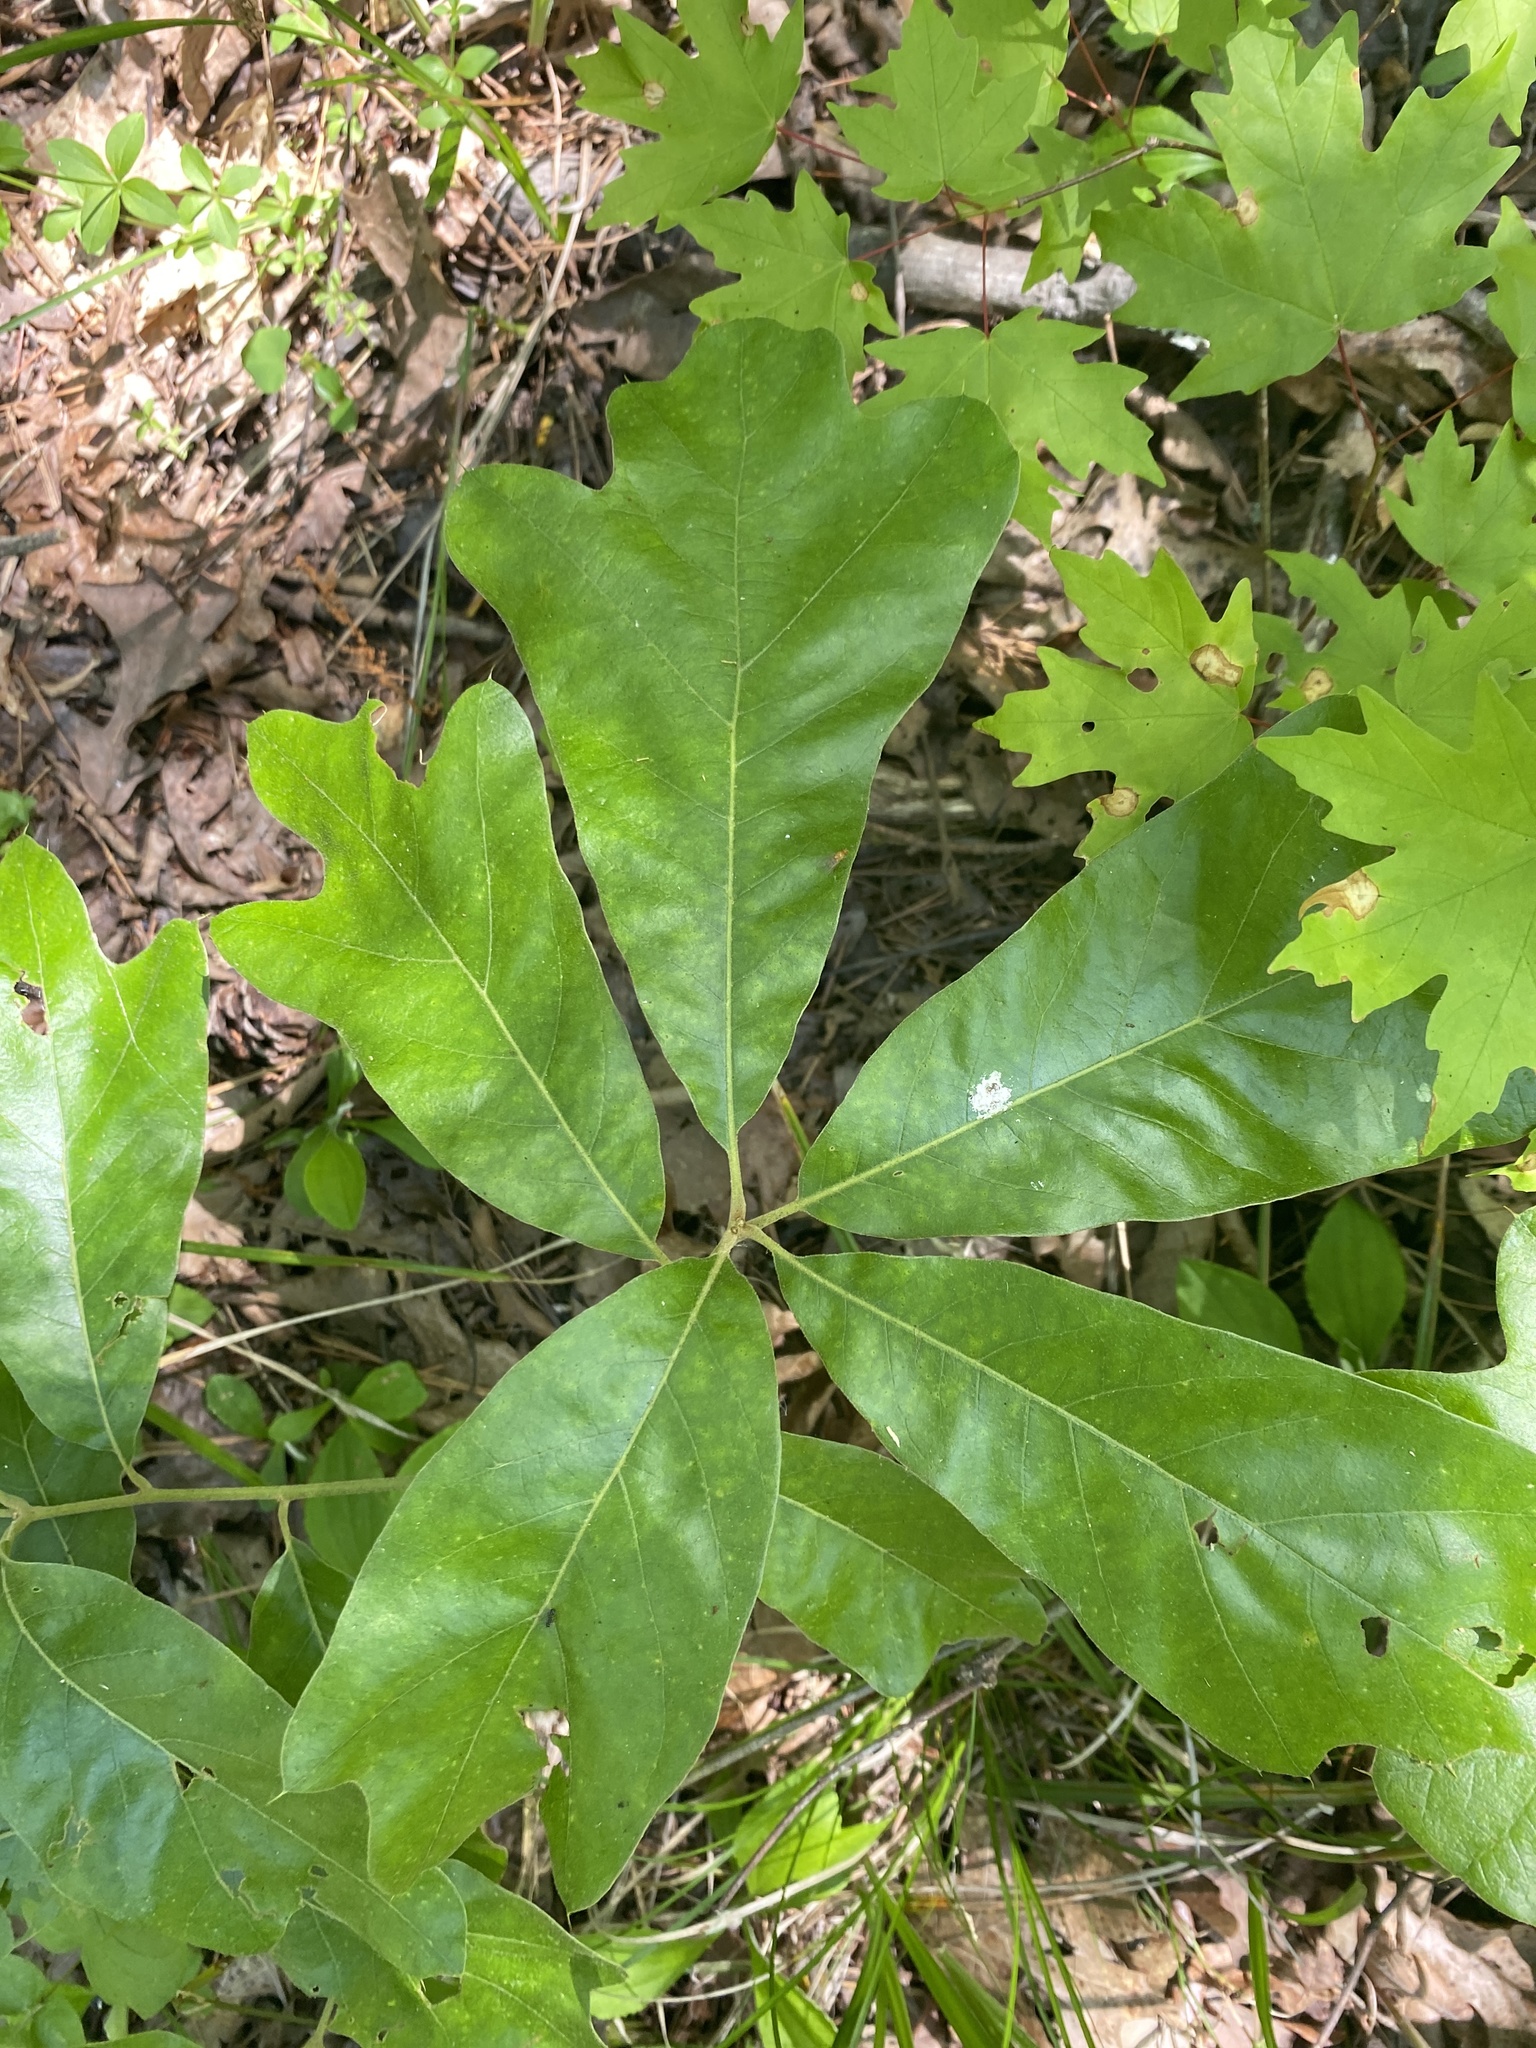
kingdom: Plantae
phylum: Tracheophyta
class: Magnoliopsida
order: Fagales
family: Fagaceae
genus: Quercus
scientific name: Quercus falcata
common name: Southern red oak
